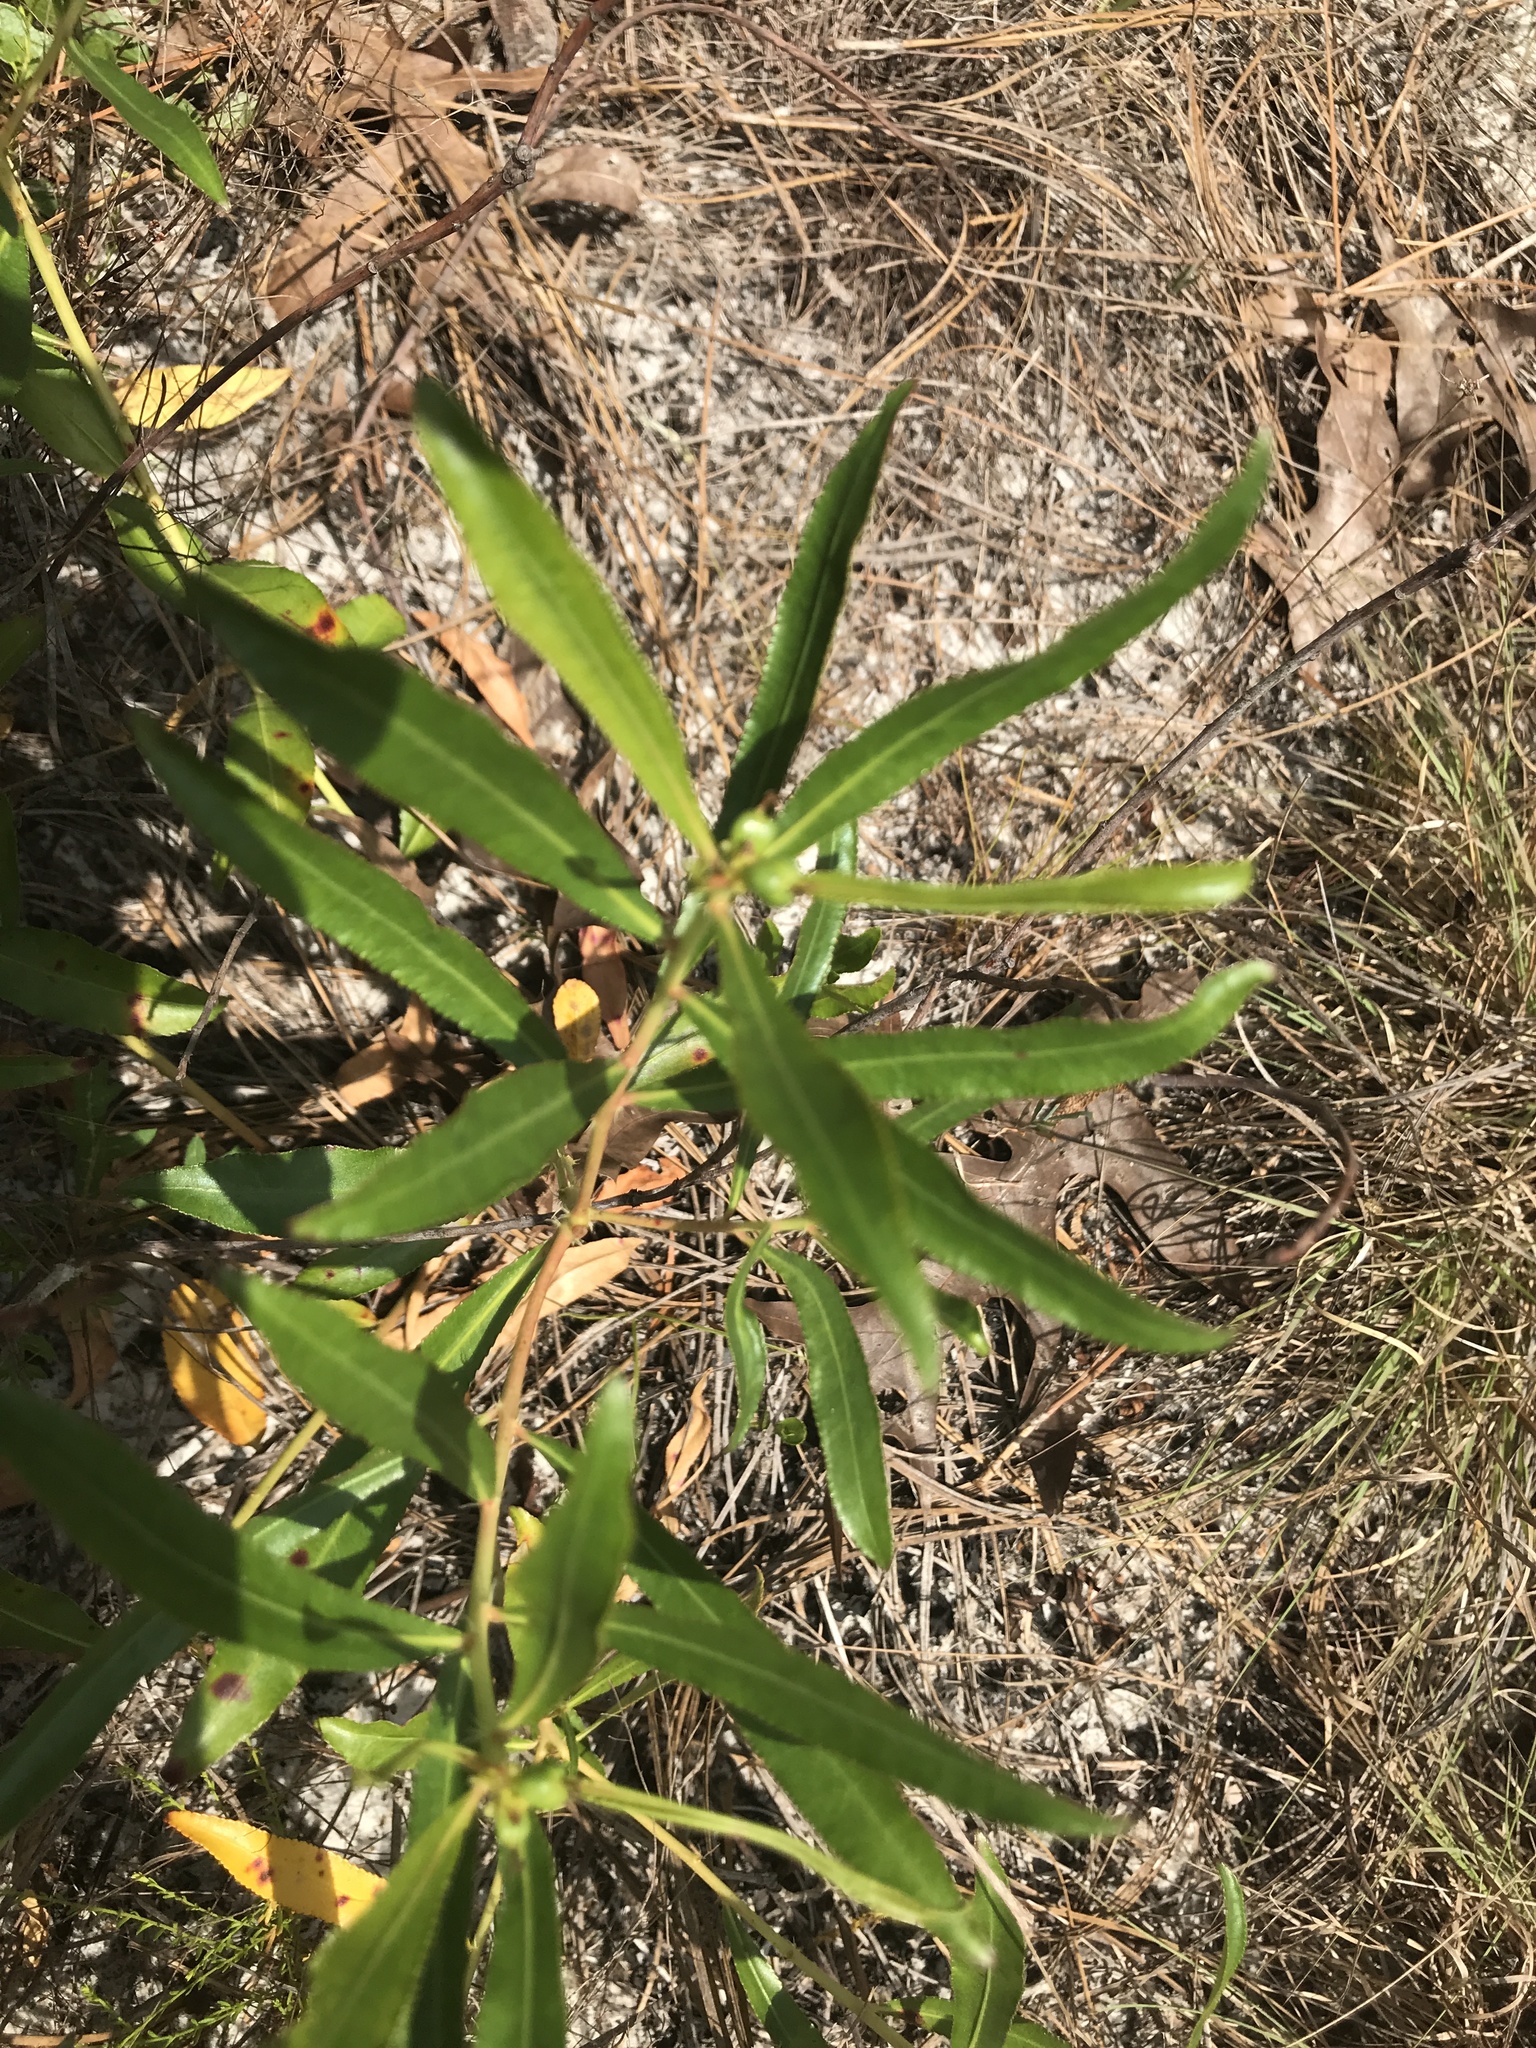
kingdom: Plantae
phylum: Tracheophyta
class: Magnoliopsida
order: Malpighiales
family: Euphorbiaceae
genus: Stillingia
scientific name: Stillingia sylvatica
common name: Queen's-delight
